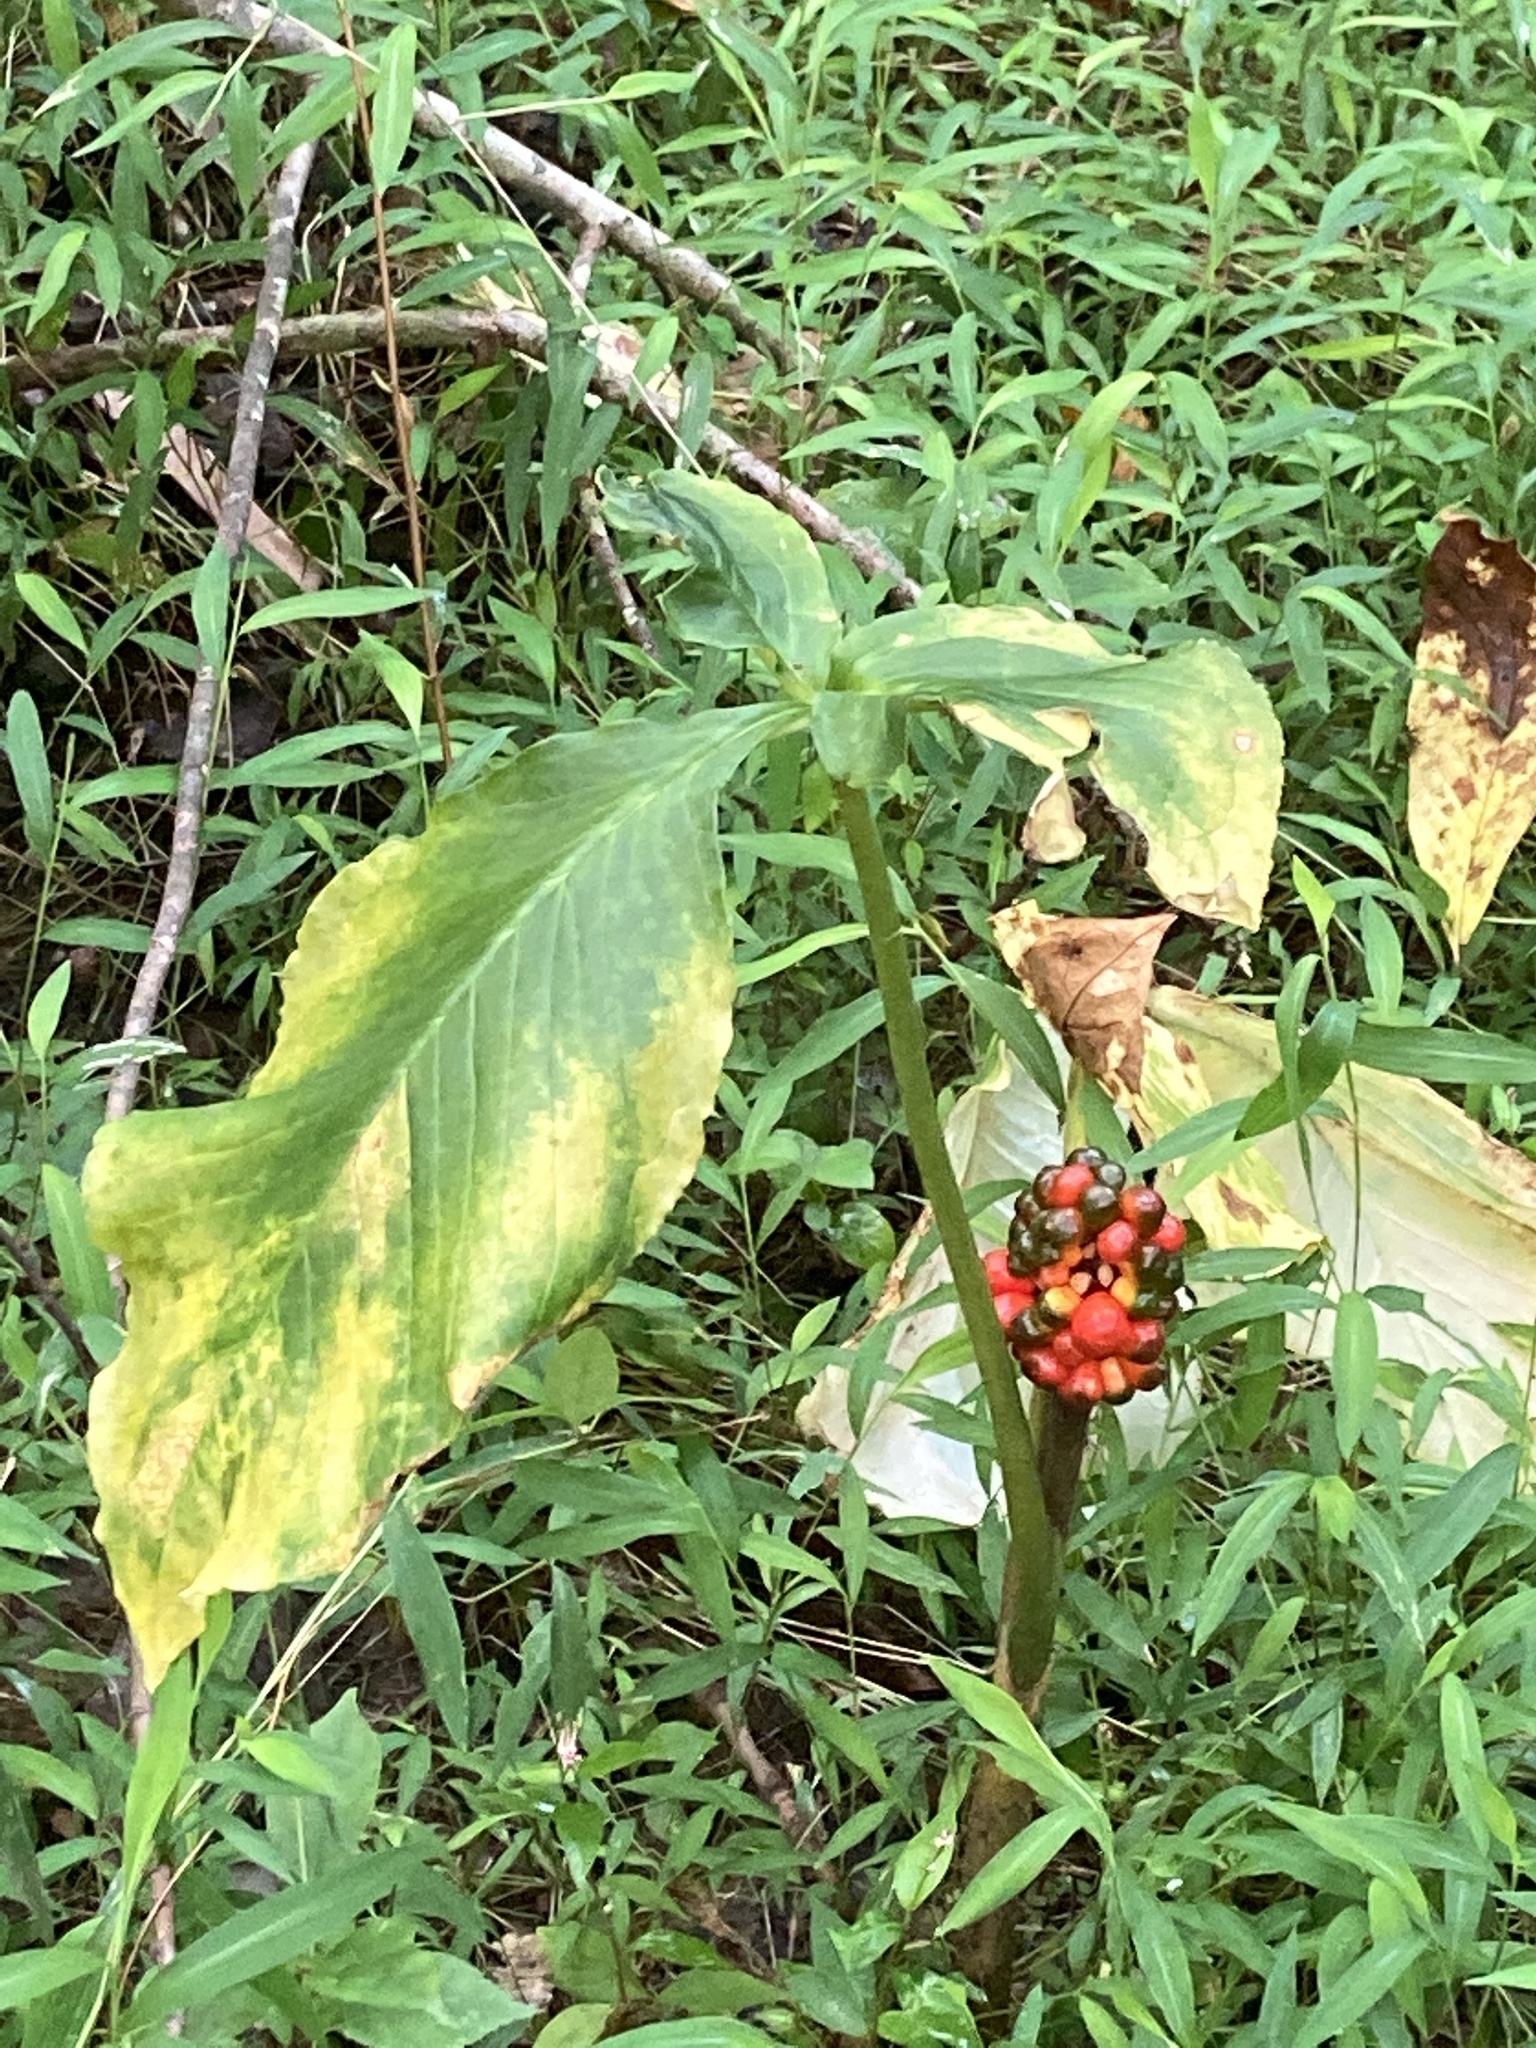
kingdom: Plantae
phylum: Tracheophyta
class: Liliopsida
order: Alismatales
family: Araceae
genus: Arisaema
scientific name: Arisaema triphyllum
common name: Jack-in-the-pulpit
